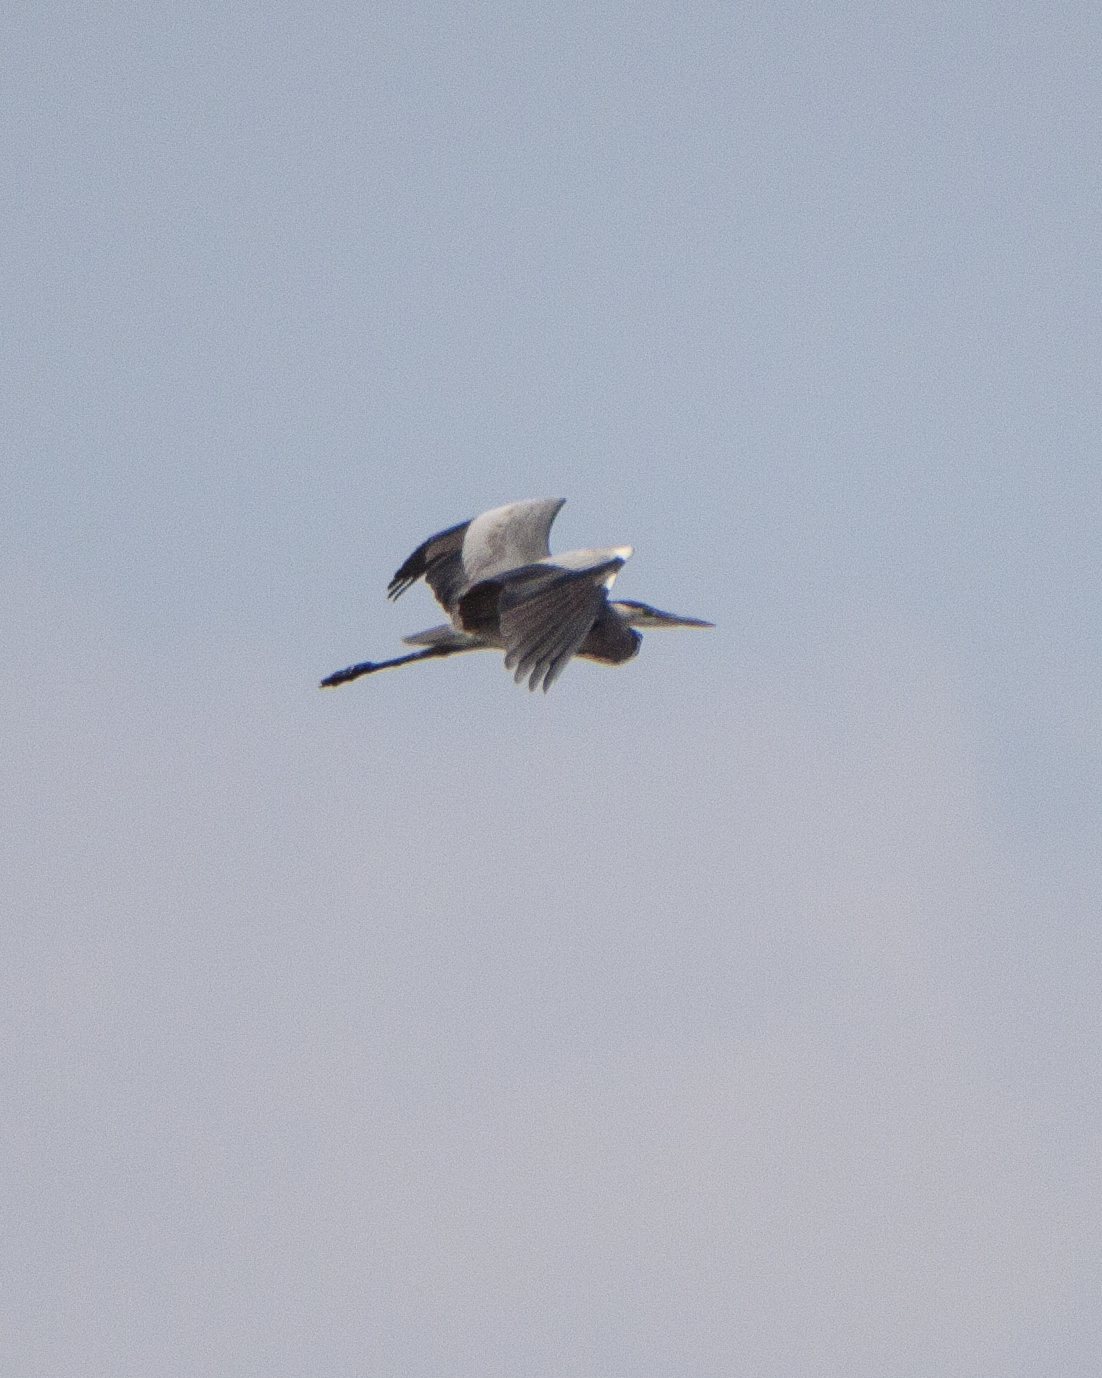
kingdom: Animalia
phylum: Chordata
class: Aves
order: Pelecaniformes
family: Ardeidae
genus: Ardea
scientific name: Ardea cinerea
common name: Grey heron
